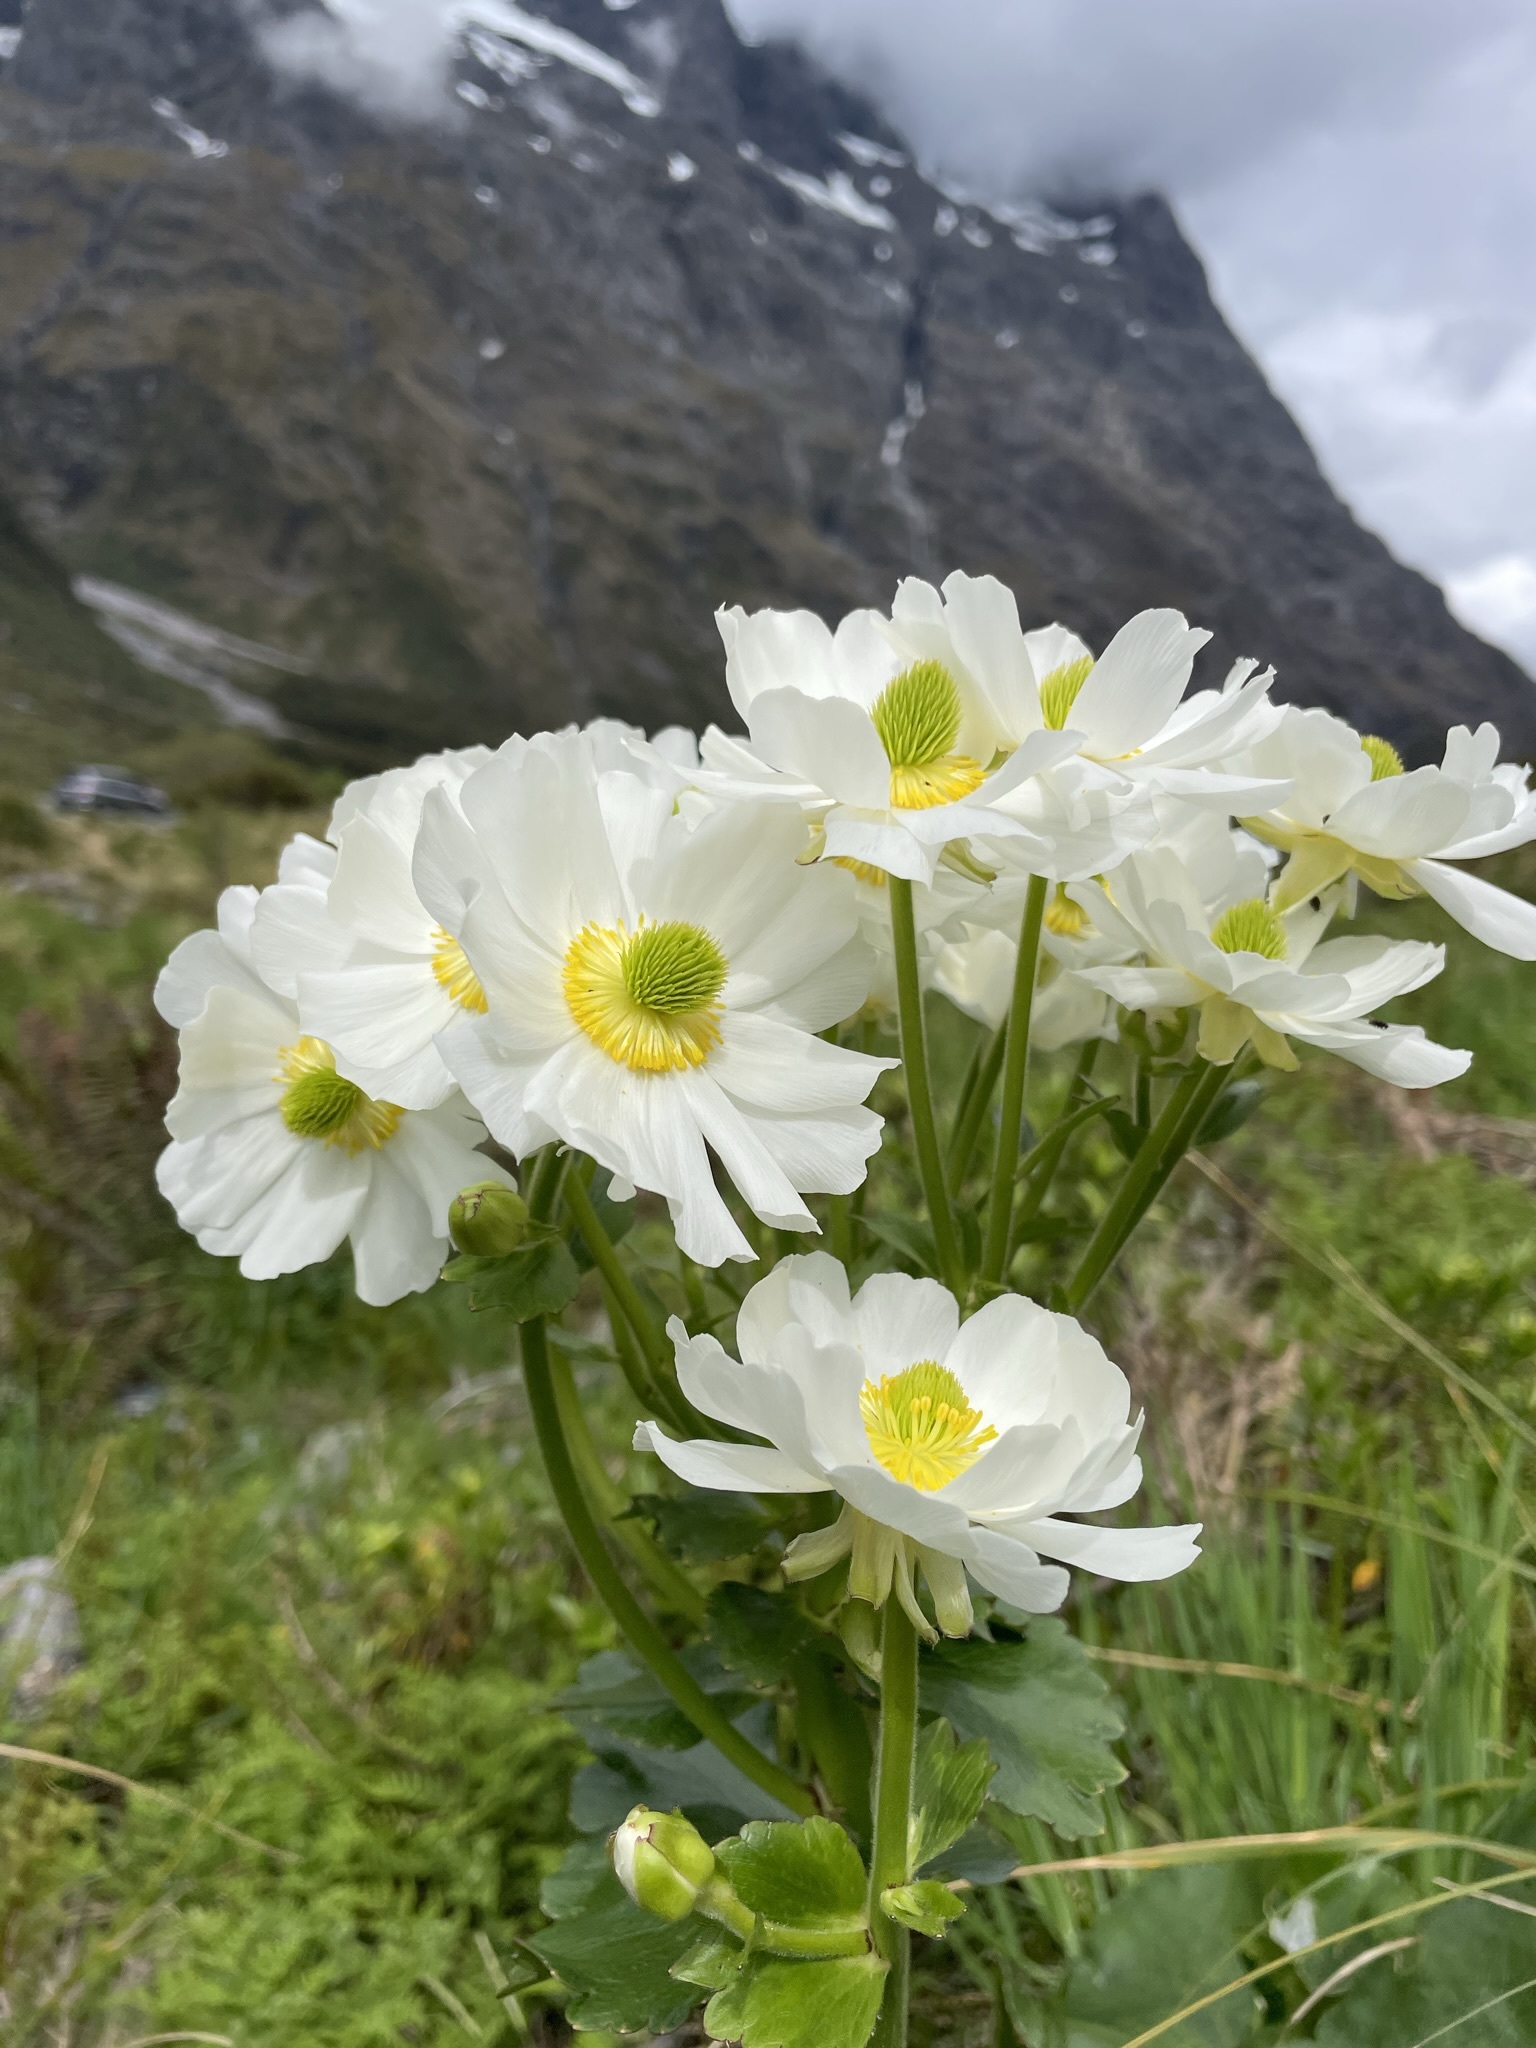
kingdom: Plantae
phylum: Tracheophyta
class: Magnoliopsida
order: Ranunculales
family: Ranunculaceae
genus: Ranunculus
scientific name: Ranunculus lyallii
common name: Mountain-lily
